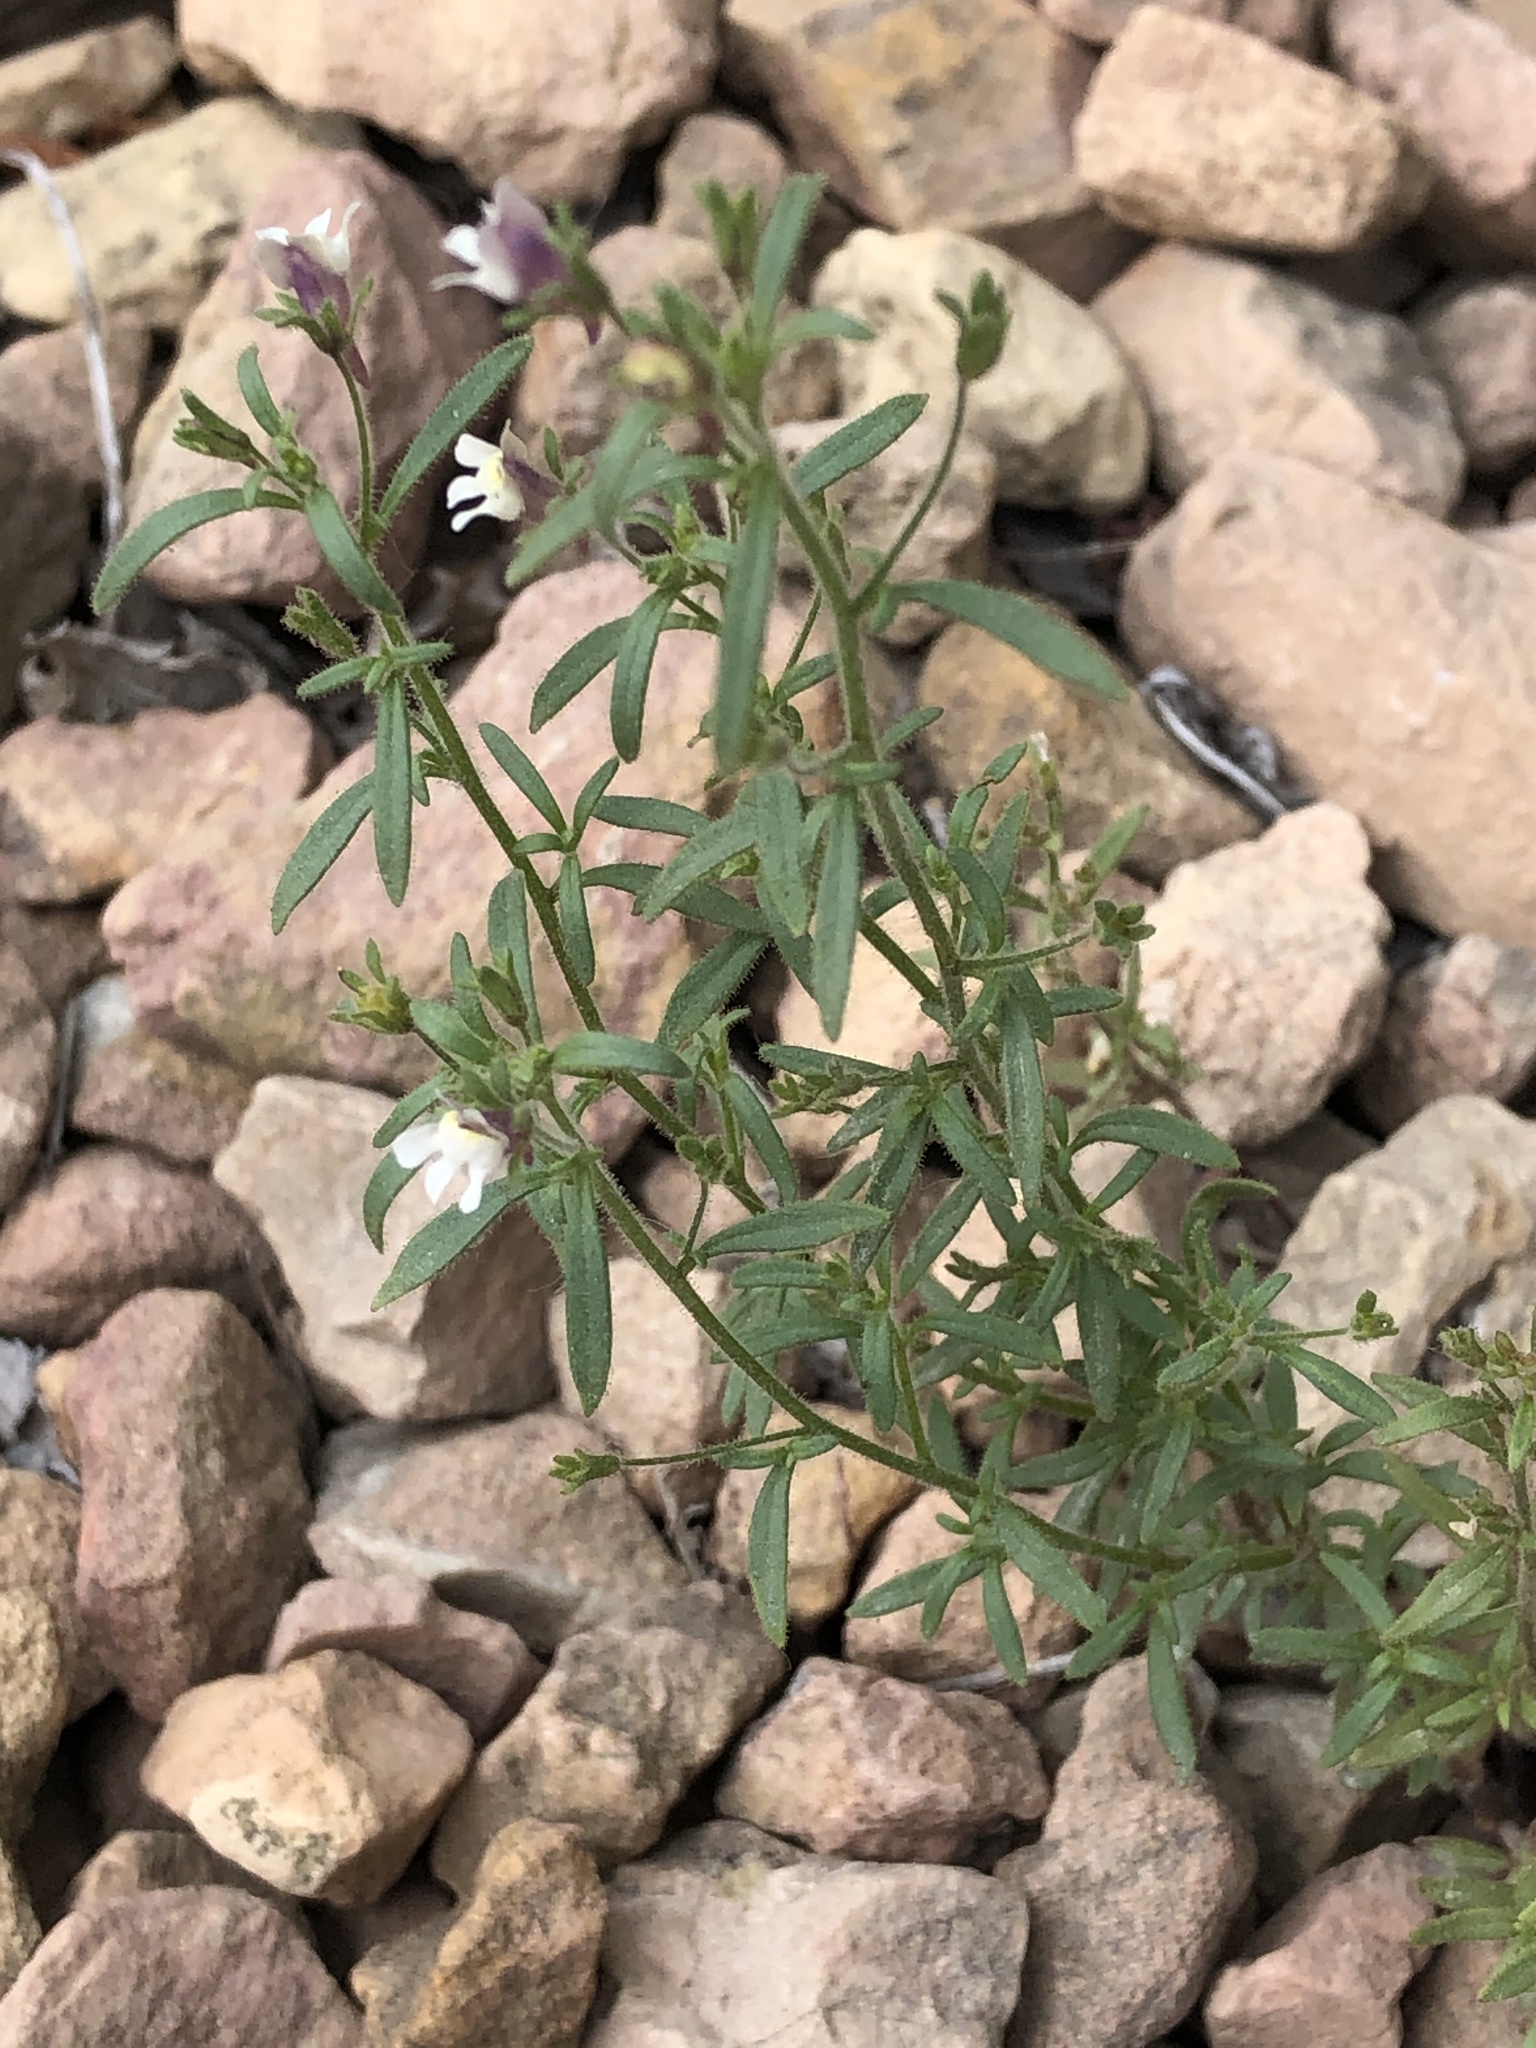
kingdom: Plantae
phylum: Tracheophyta
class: Magnoliopsida
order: Lamiales
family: Plantaginaceae
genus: Chaenorhinum
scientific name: Chaenorhinum minus
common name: Dwarf snapdragon
